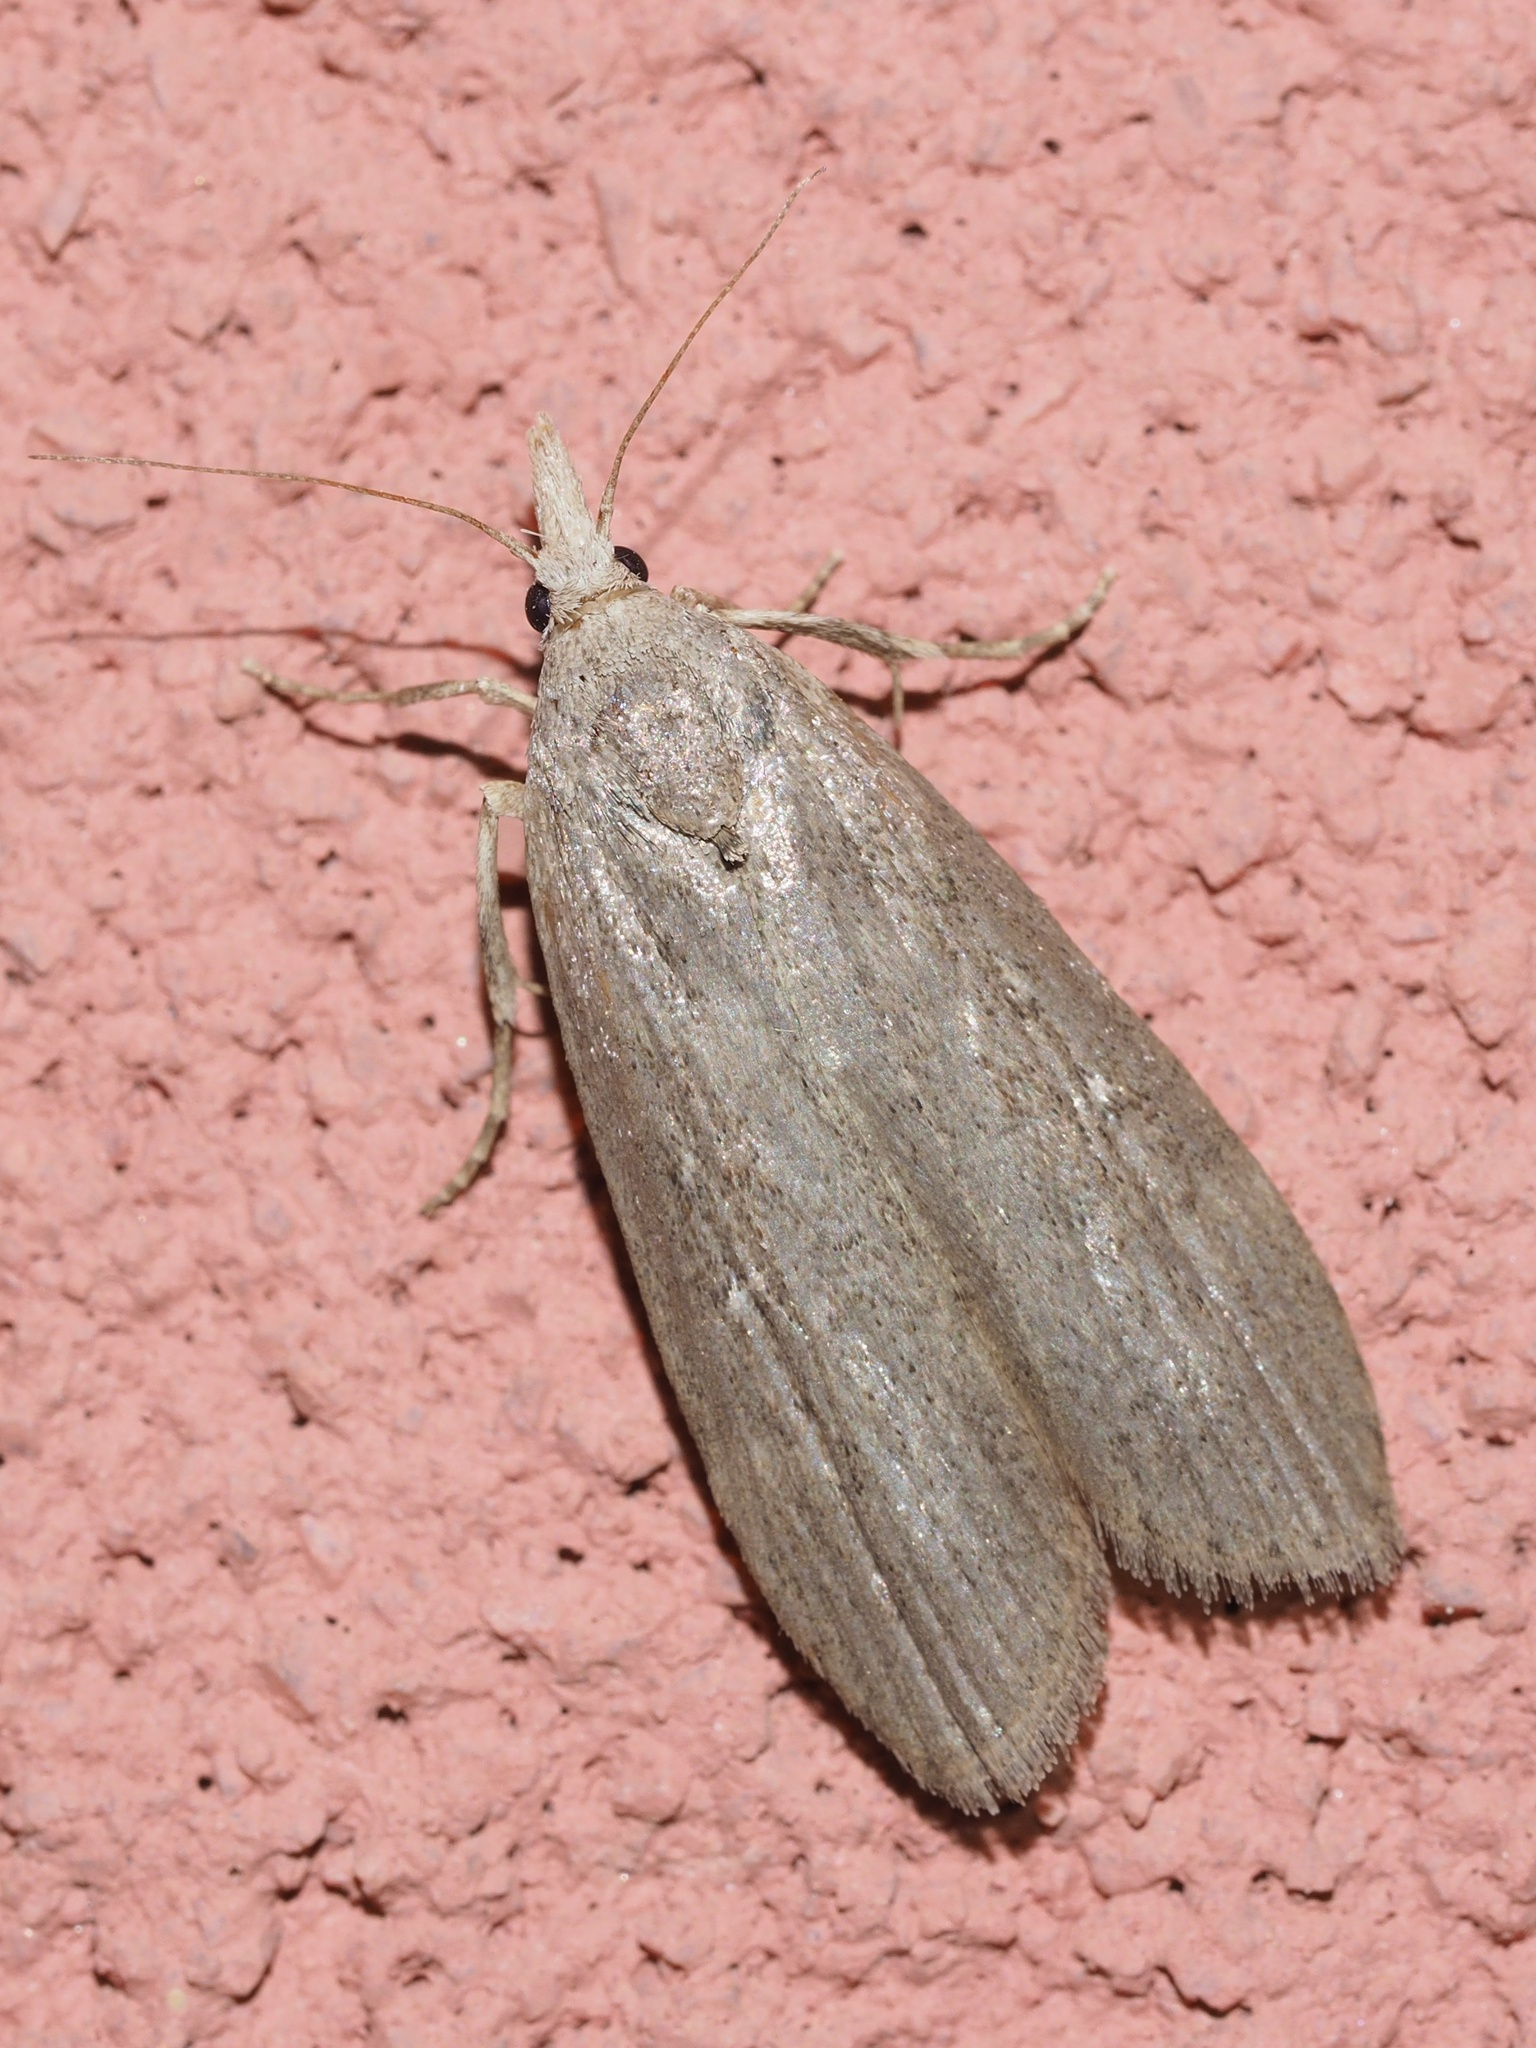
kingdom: Animalia
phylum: Arthropoda
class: Insecta
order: Lepidoptera
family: Pyralidae
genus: Lamoria
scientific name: Lamoria anella
